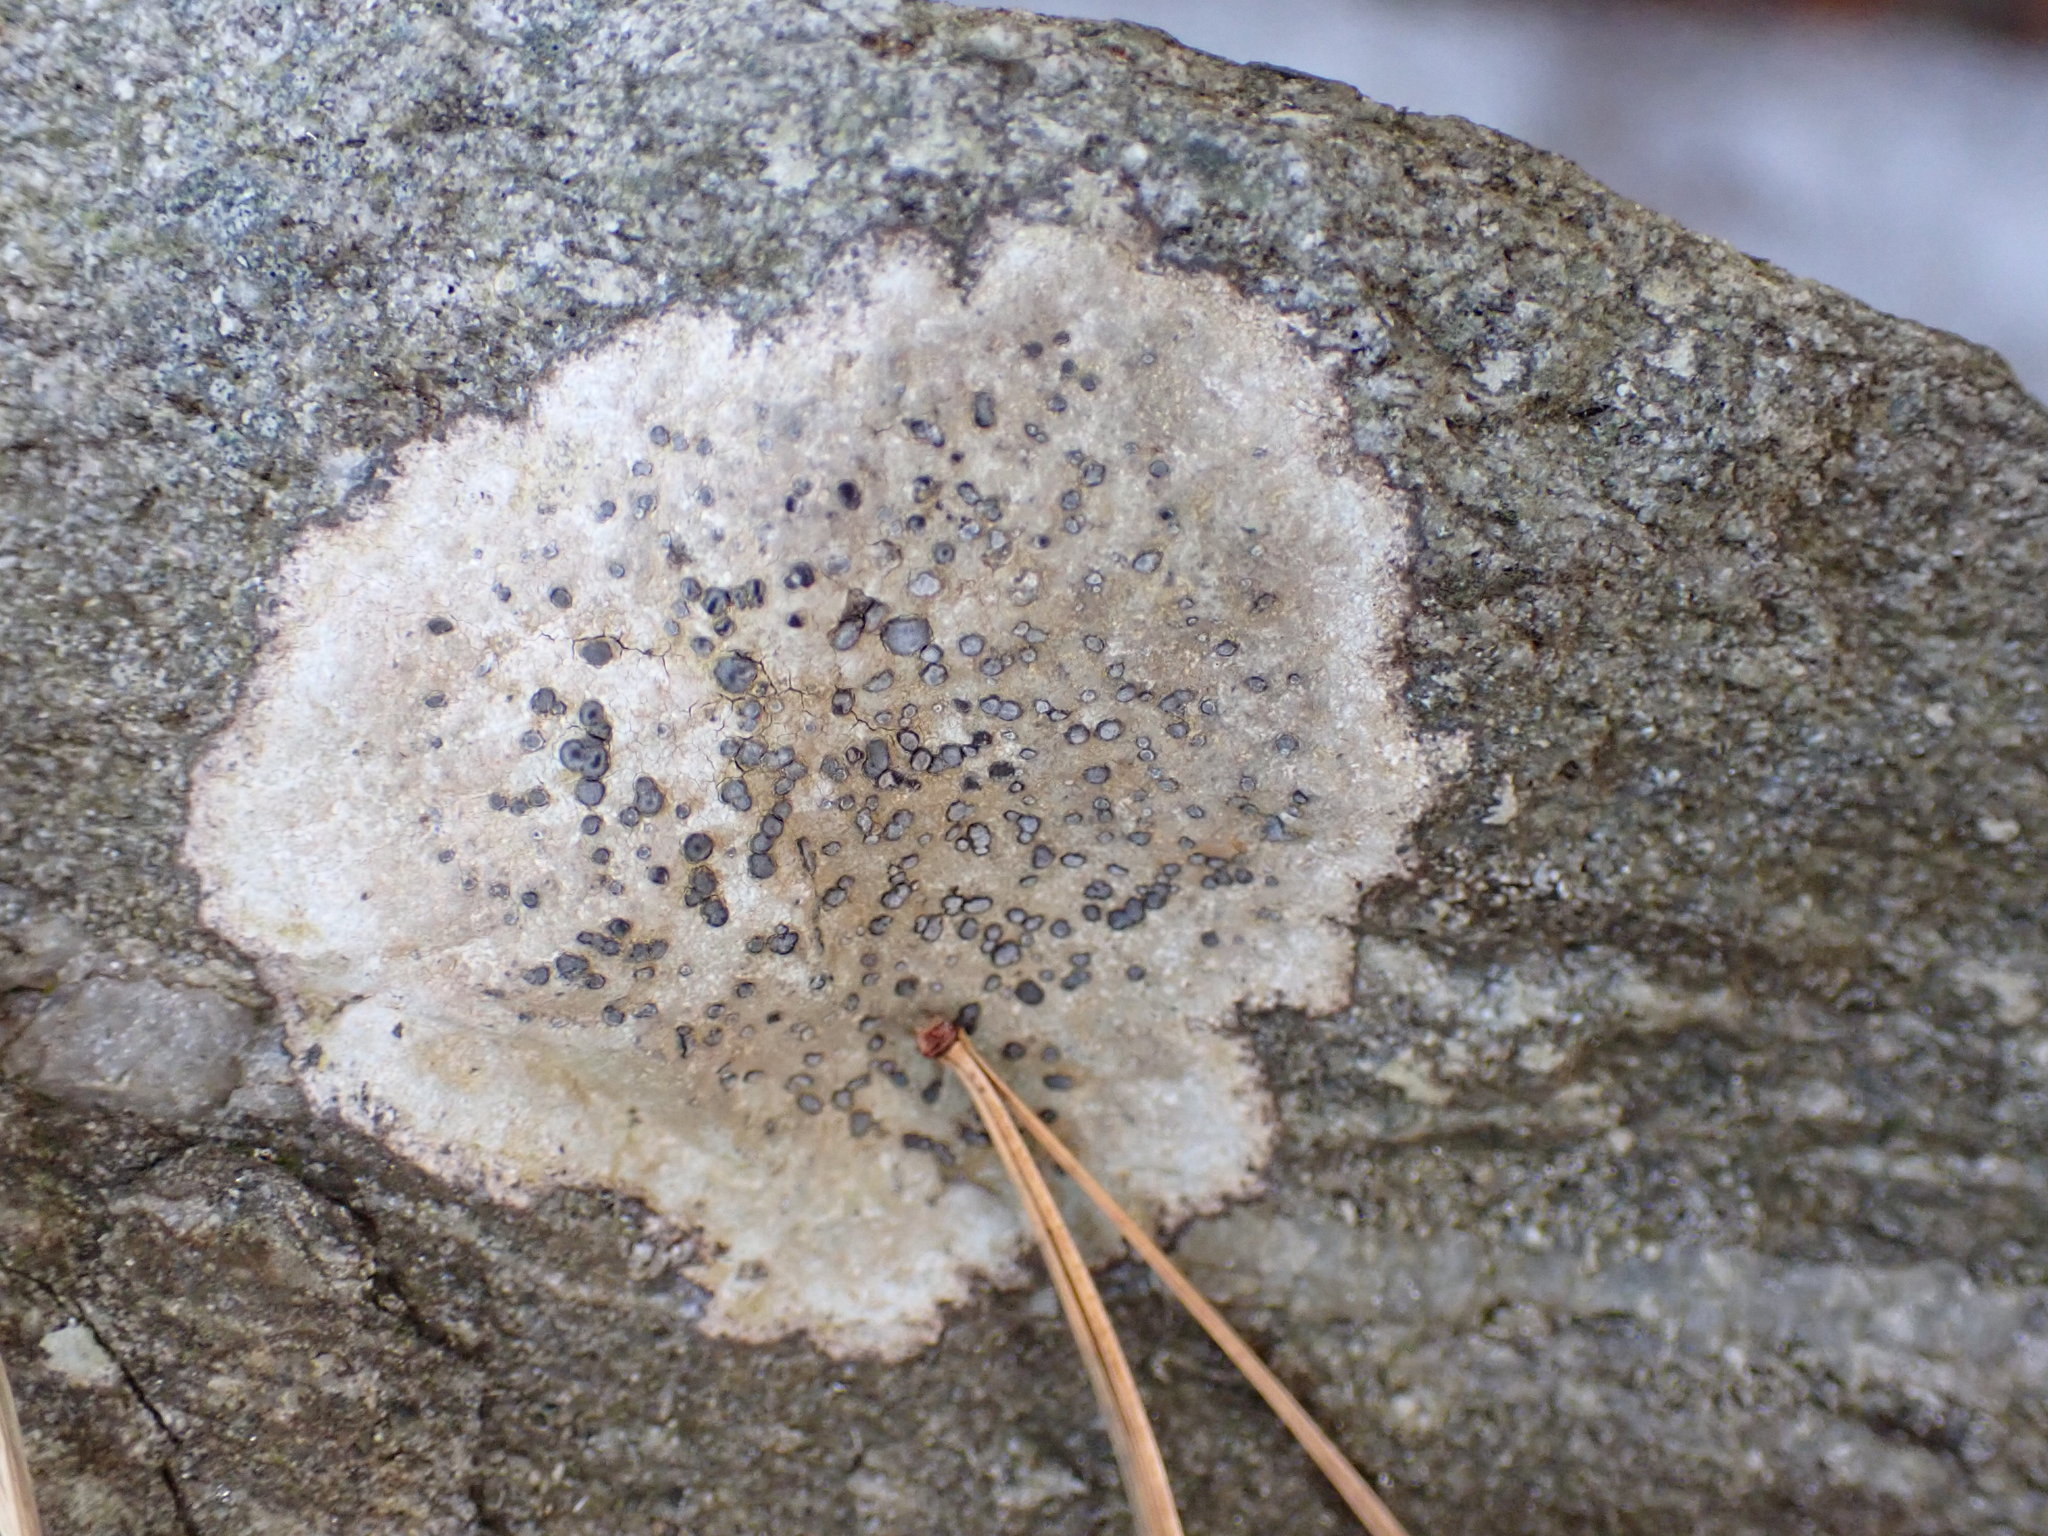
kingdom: Fungi
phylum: Ascomycota
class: Lecanoromycetes
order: Lecideales
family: Lecideaceae
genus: Porpidia
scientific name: Porpidia albocaerulescens
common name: Smokey-eyed boulder lichen
